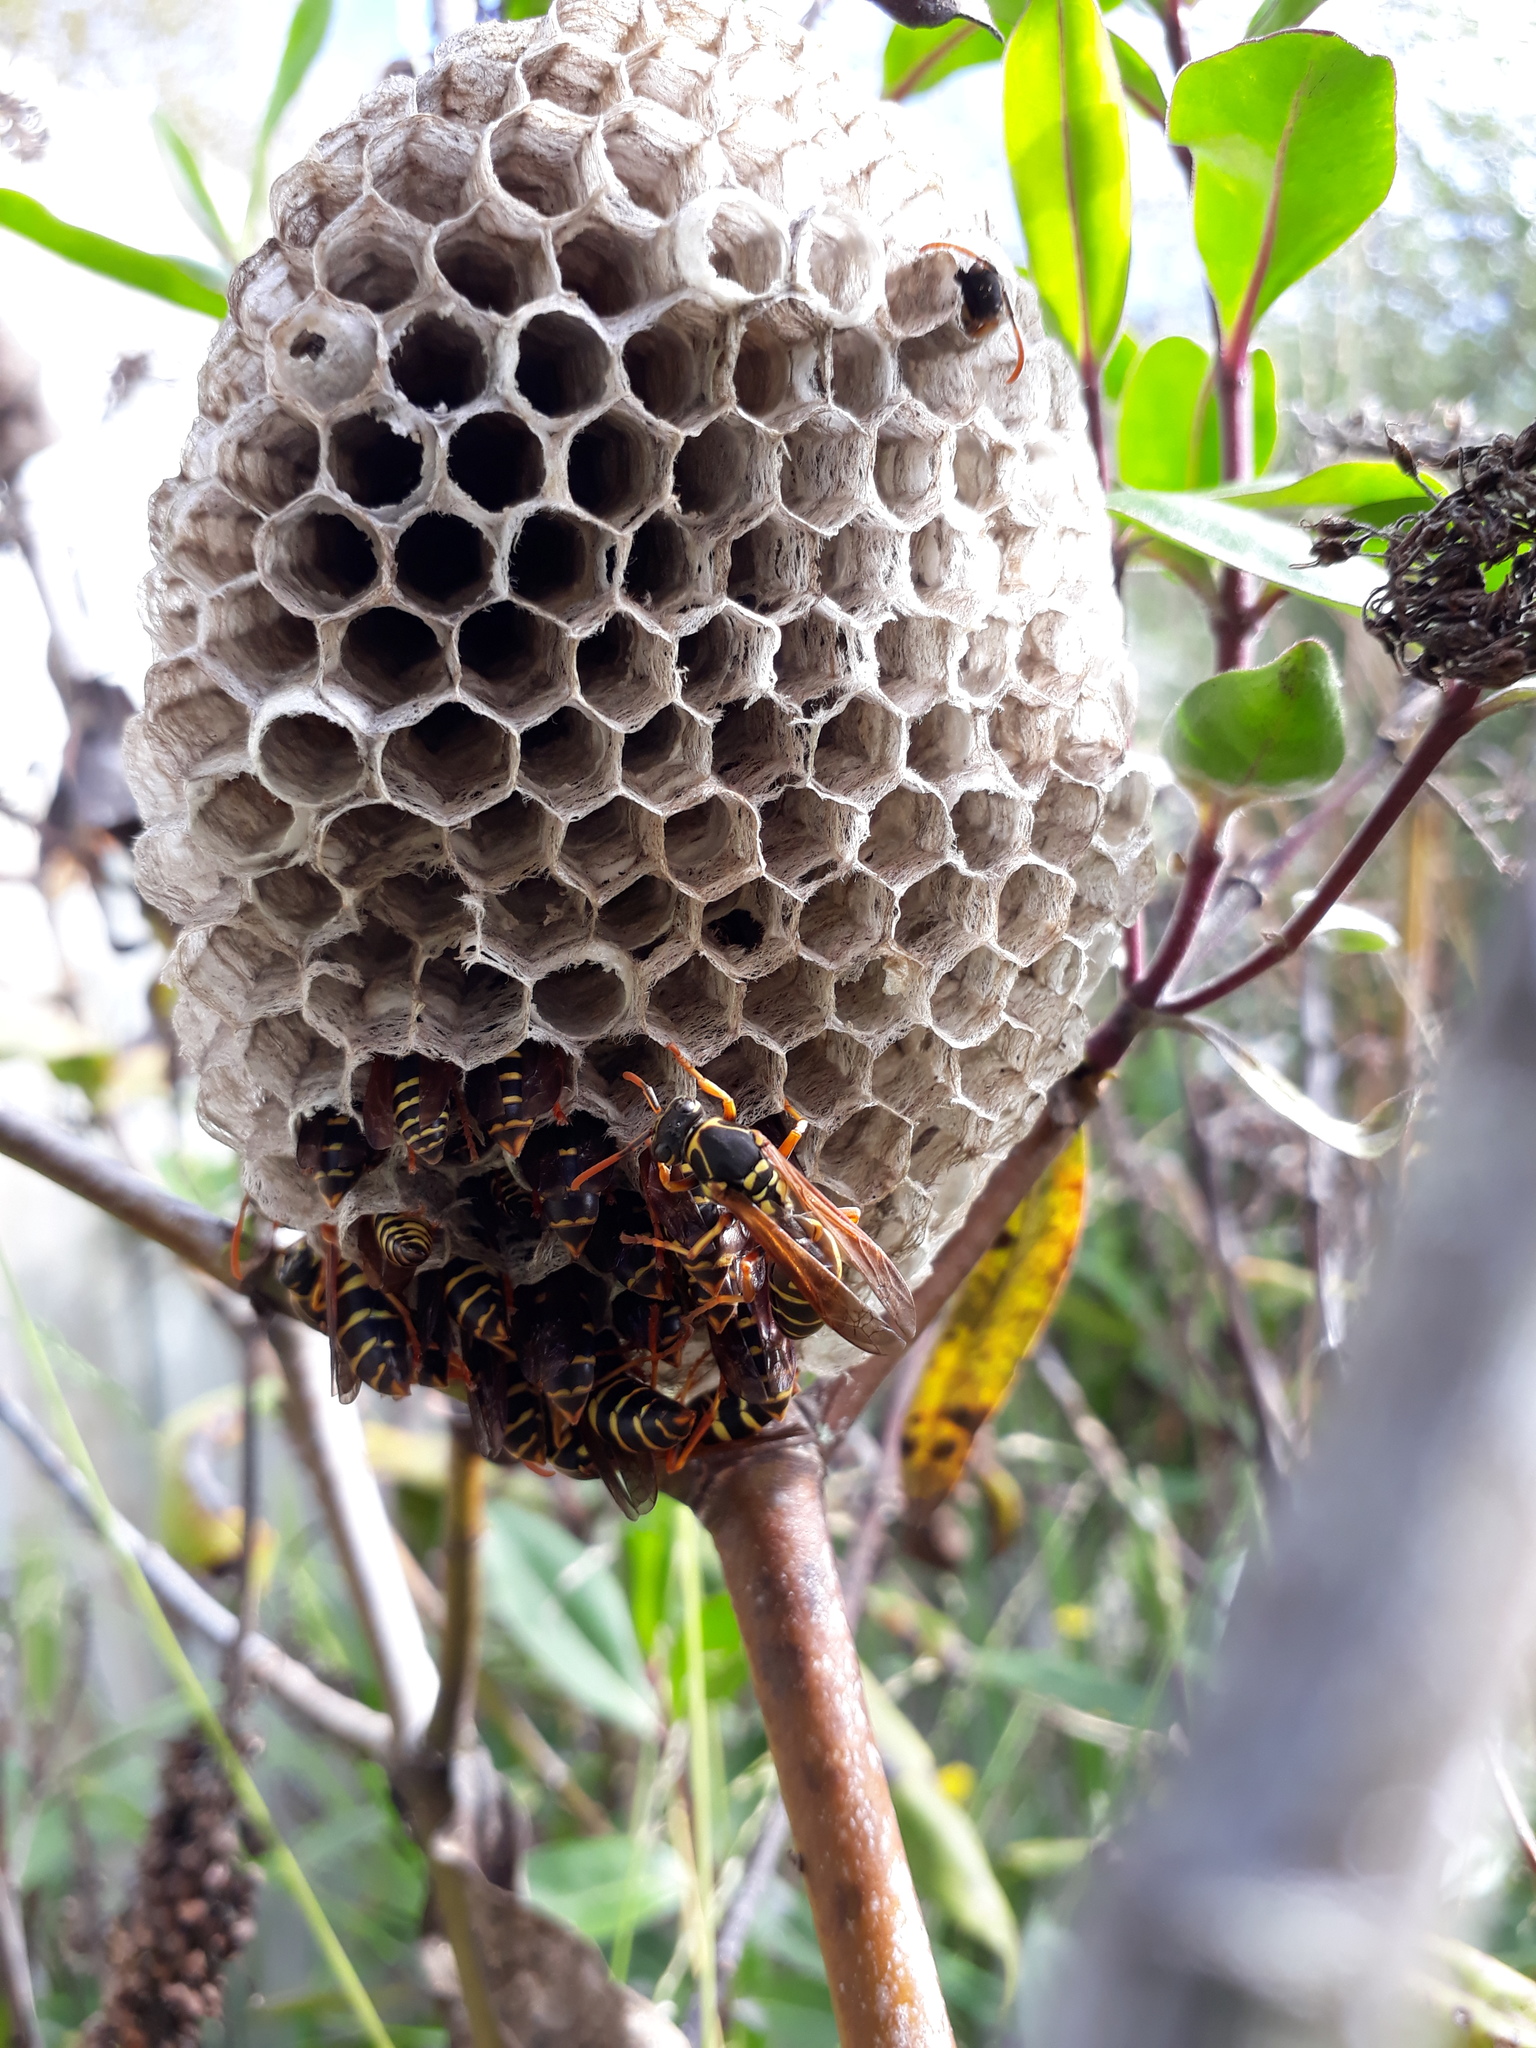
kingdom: Animalia
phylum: Arthropoda
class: Insecta
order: Hymenoptera
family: Eumenidae
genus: Polistes
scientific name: Polistes chinensis
